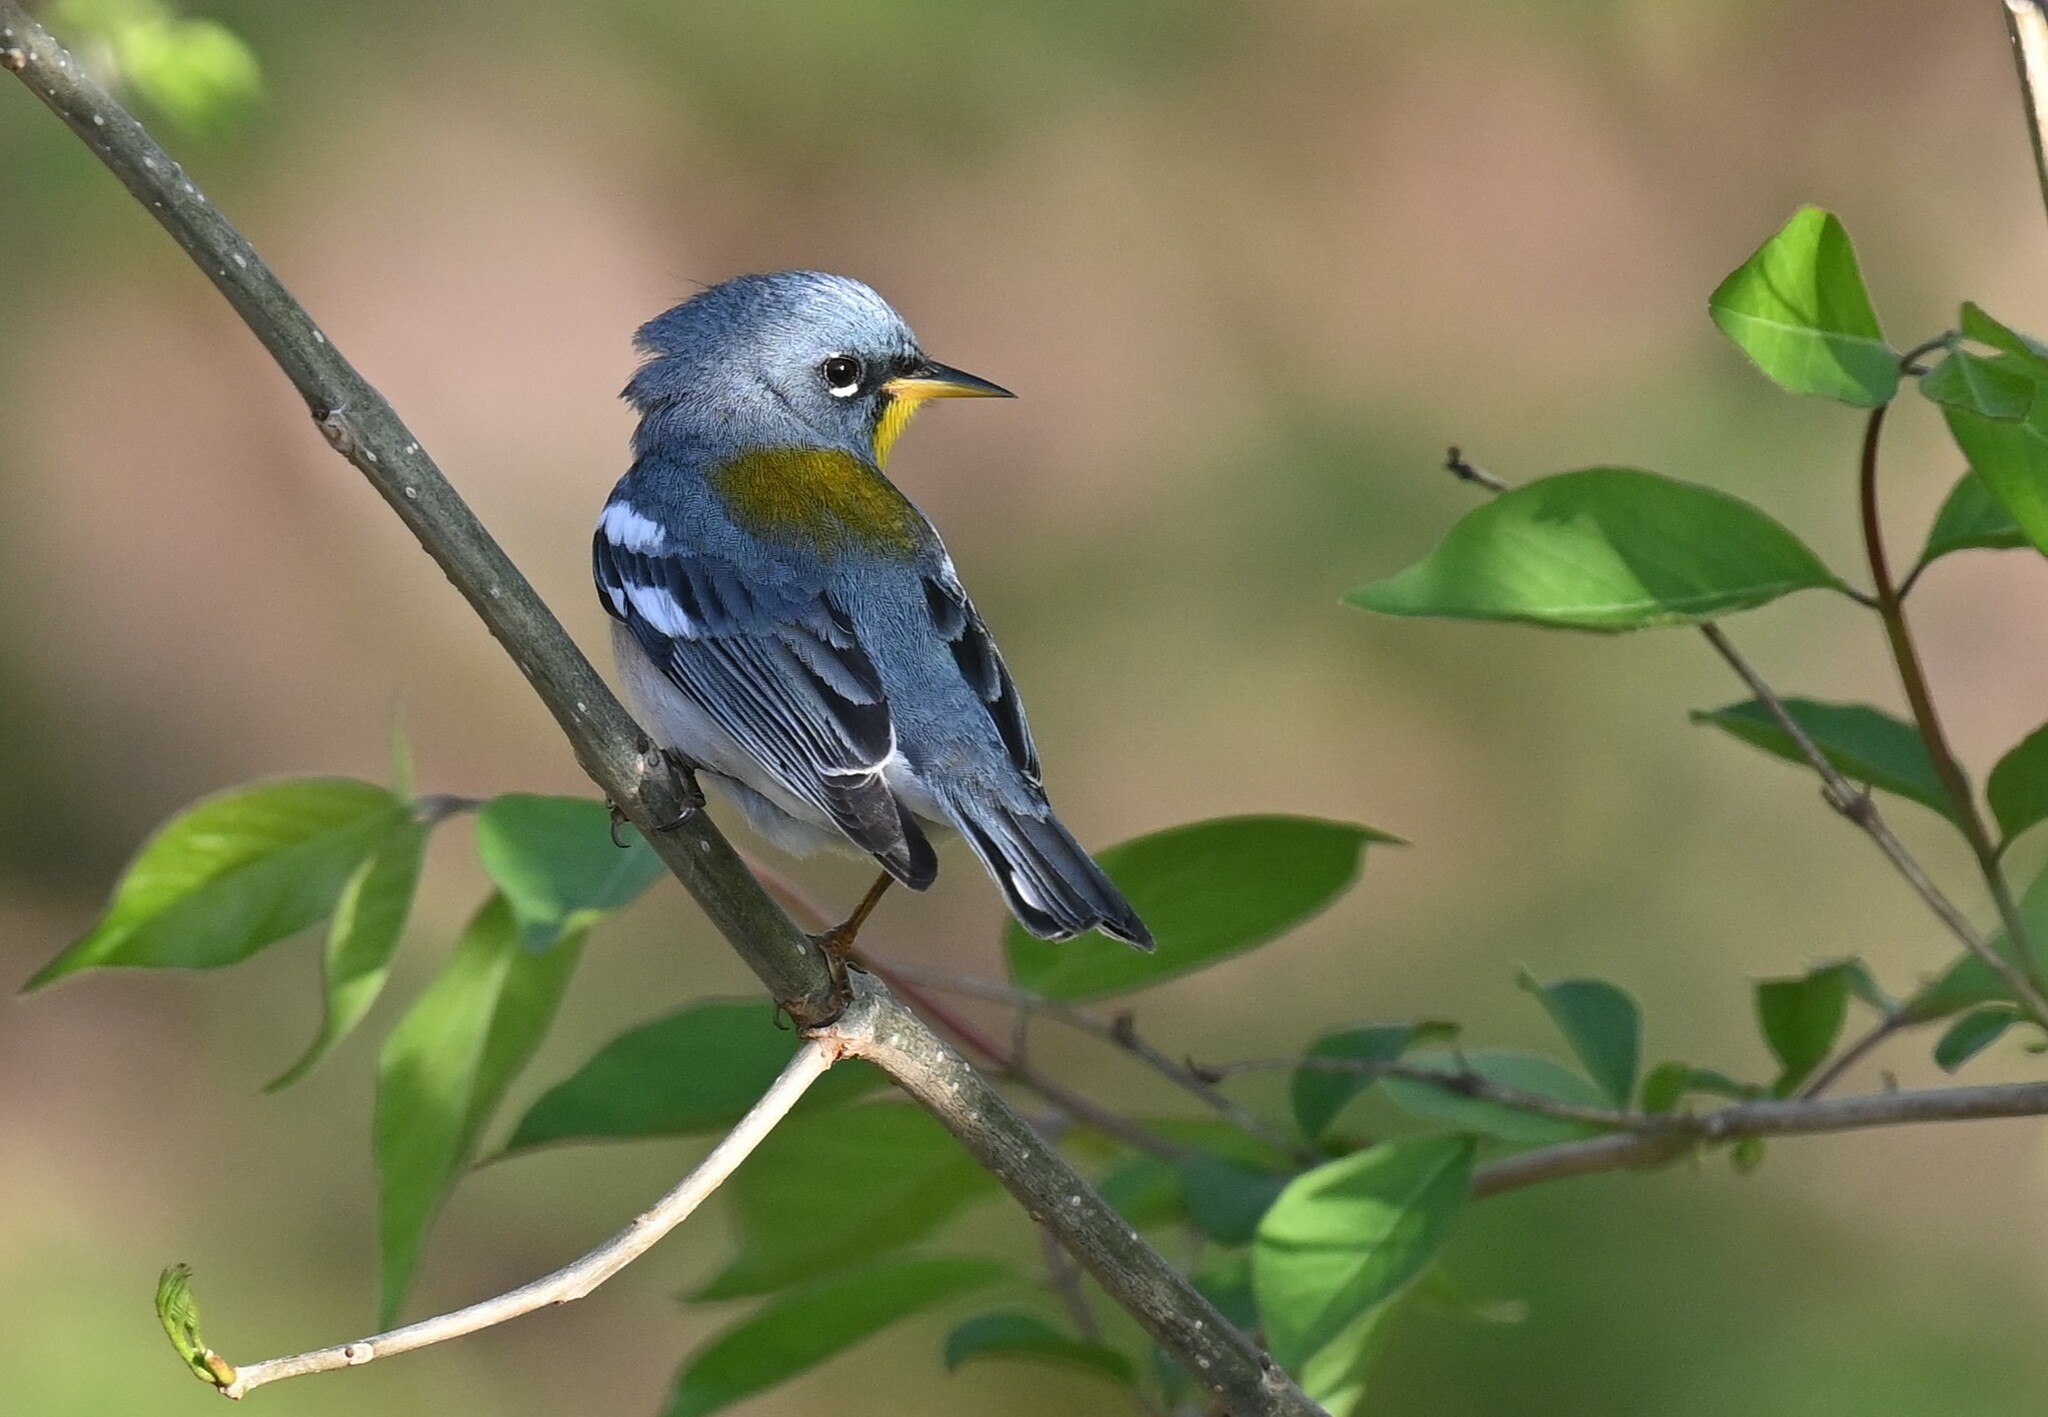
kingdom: Animalia
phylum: Chordata
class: Aves
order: Passeriformes
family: Parulidae
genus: Setophaga
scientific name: Setophaga americana
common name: Northern parula
